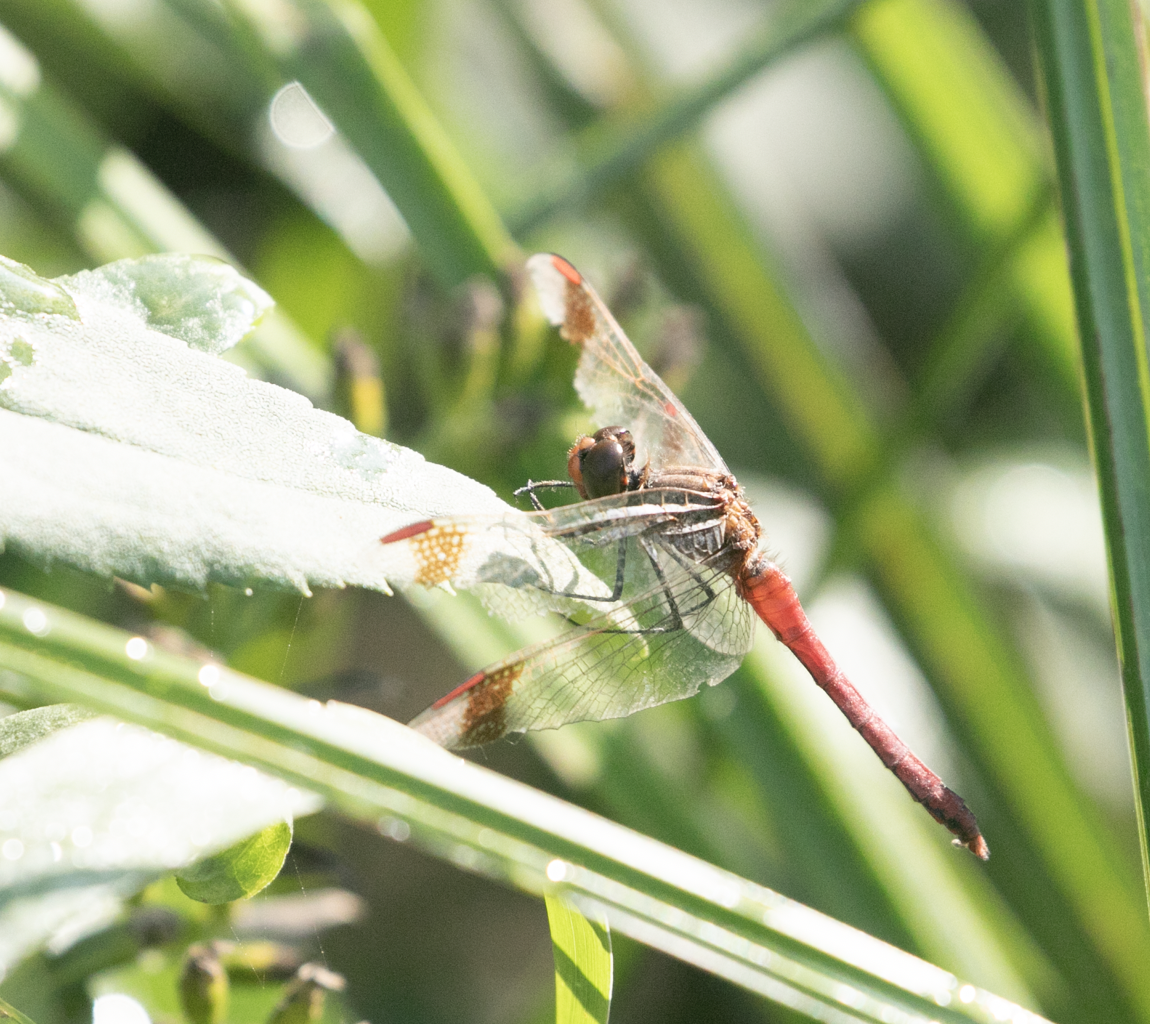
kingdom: Animalia
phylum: Arthropoda
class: Insecta
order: Odonata
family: Libellulidae
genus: Sympetrum
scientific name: Sympetrum pedemontanum
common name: Banded darter
